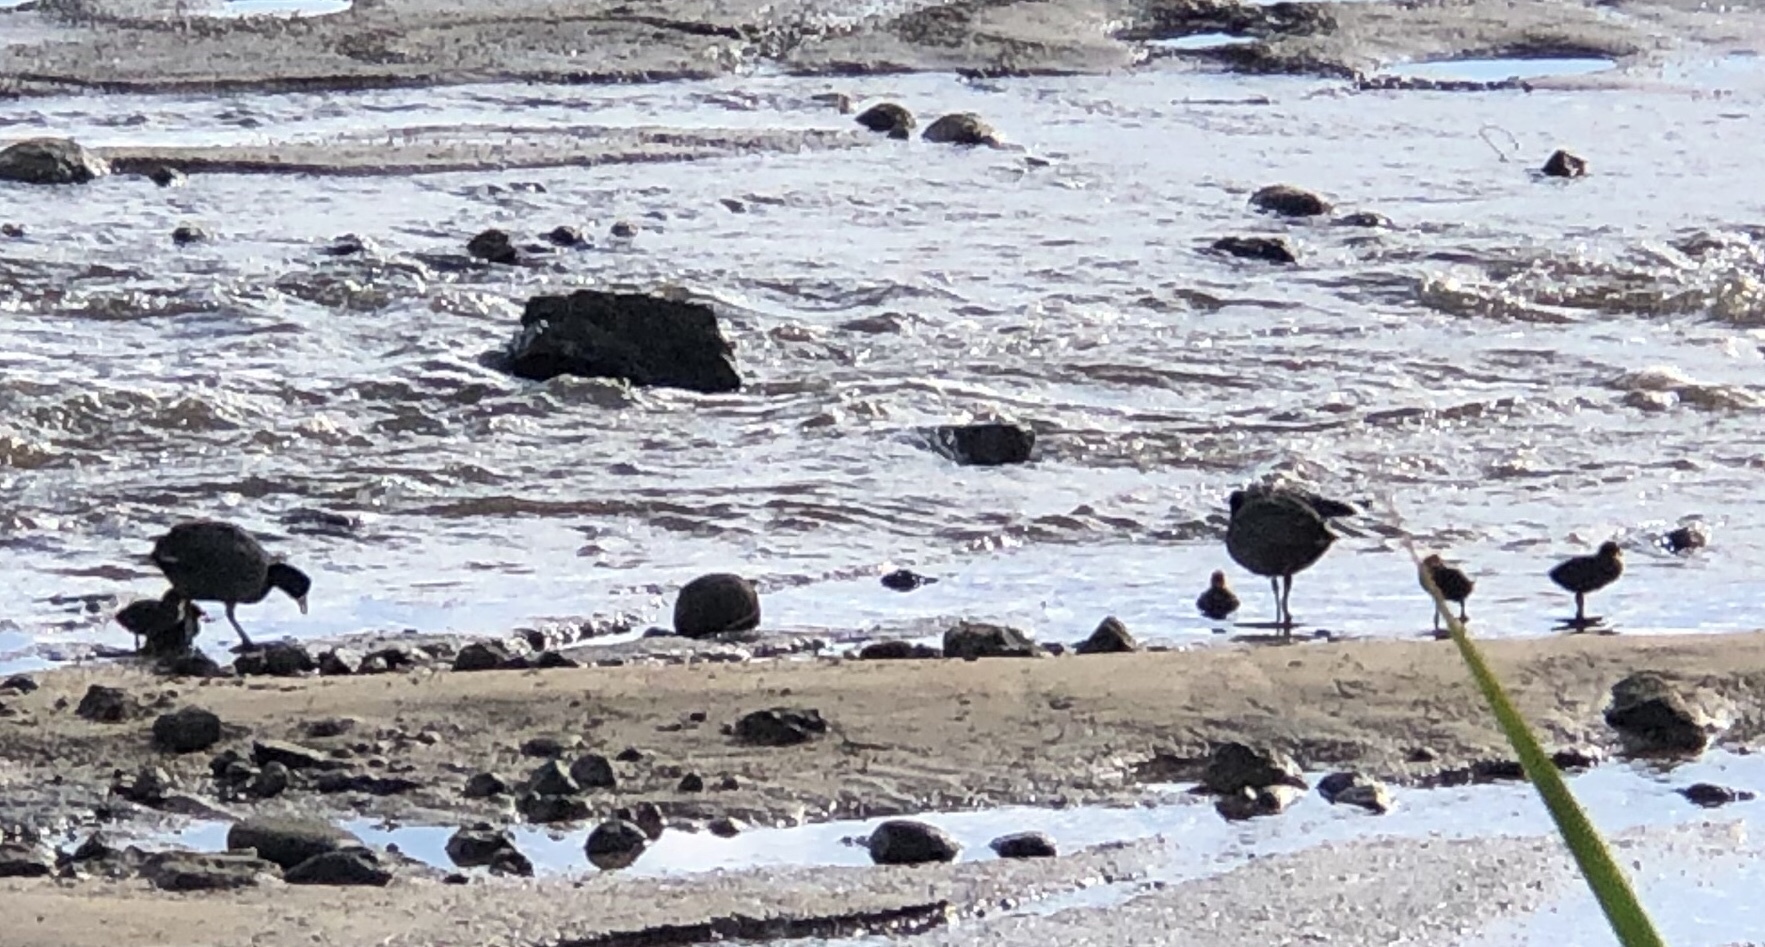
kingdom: Animalia
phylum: Chordata
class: Aves
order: Gruiformes
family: Rallidae
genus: Fulica
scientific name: Fulica alai
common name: Hawaiian coot
